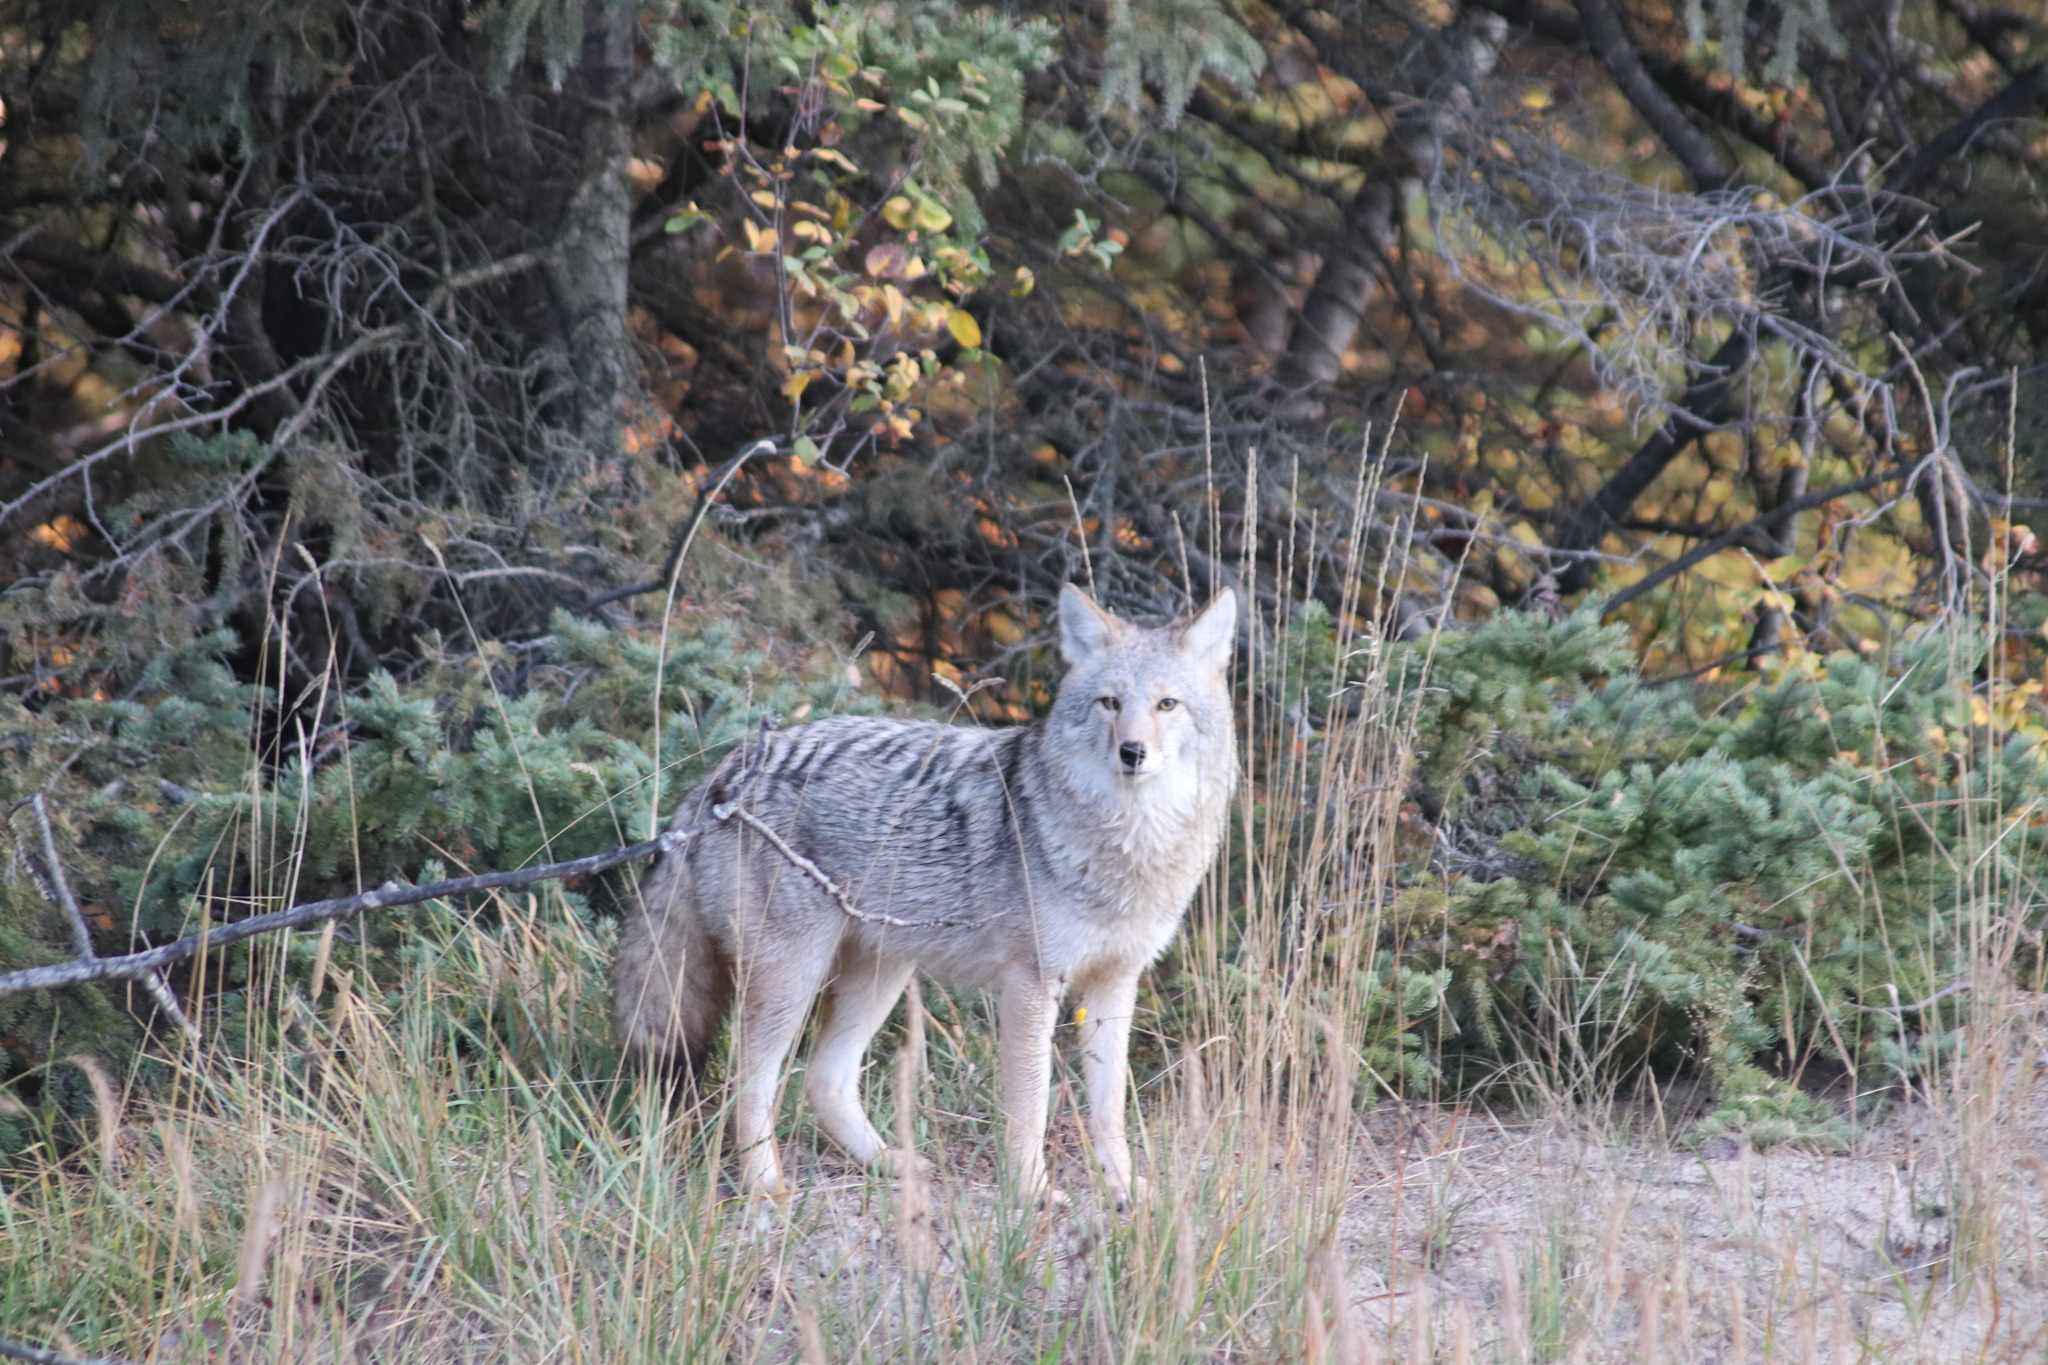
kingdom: Animalia
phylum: Chordata
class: Mammalia
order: Carnivora
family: Canidae
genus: Canis
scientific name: Canis latrans
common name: Coyote
